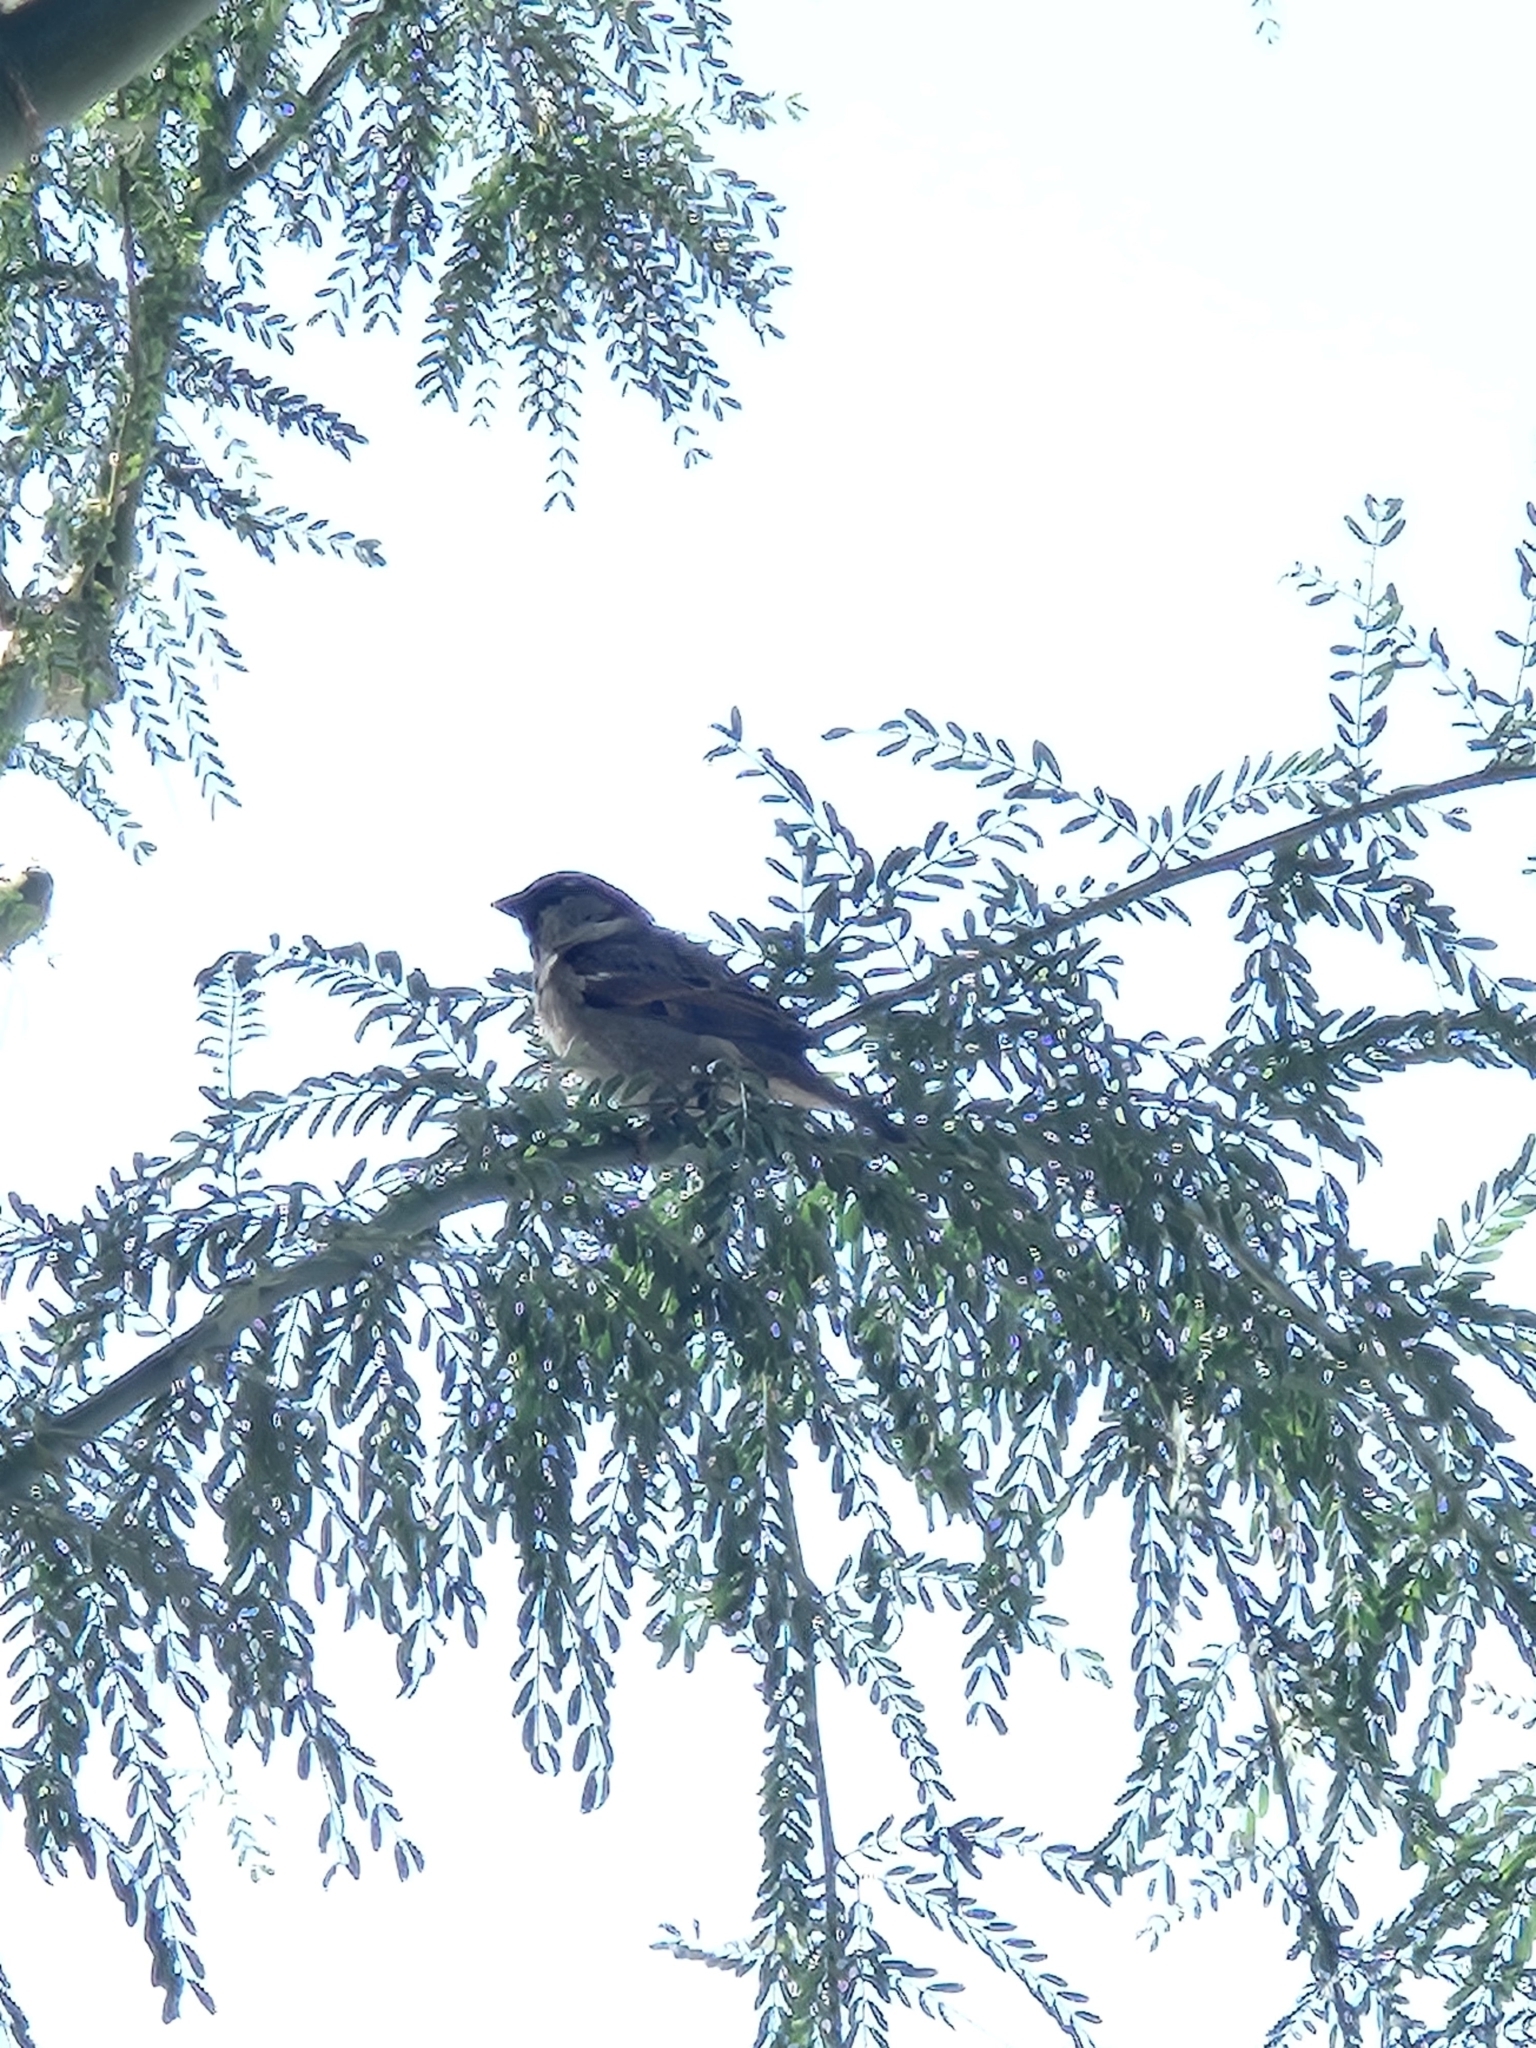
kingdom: Animalia
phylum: Chordata
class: Aves
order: Passeriformes
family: Passeridae
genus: Passer
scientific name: Passer domesticus
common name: House sparrow
